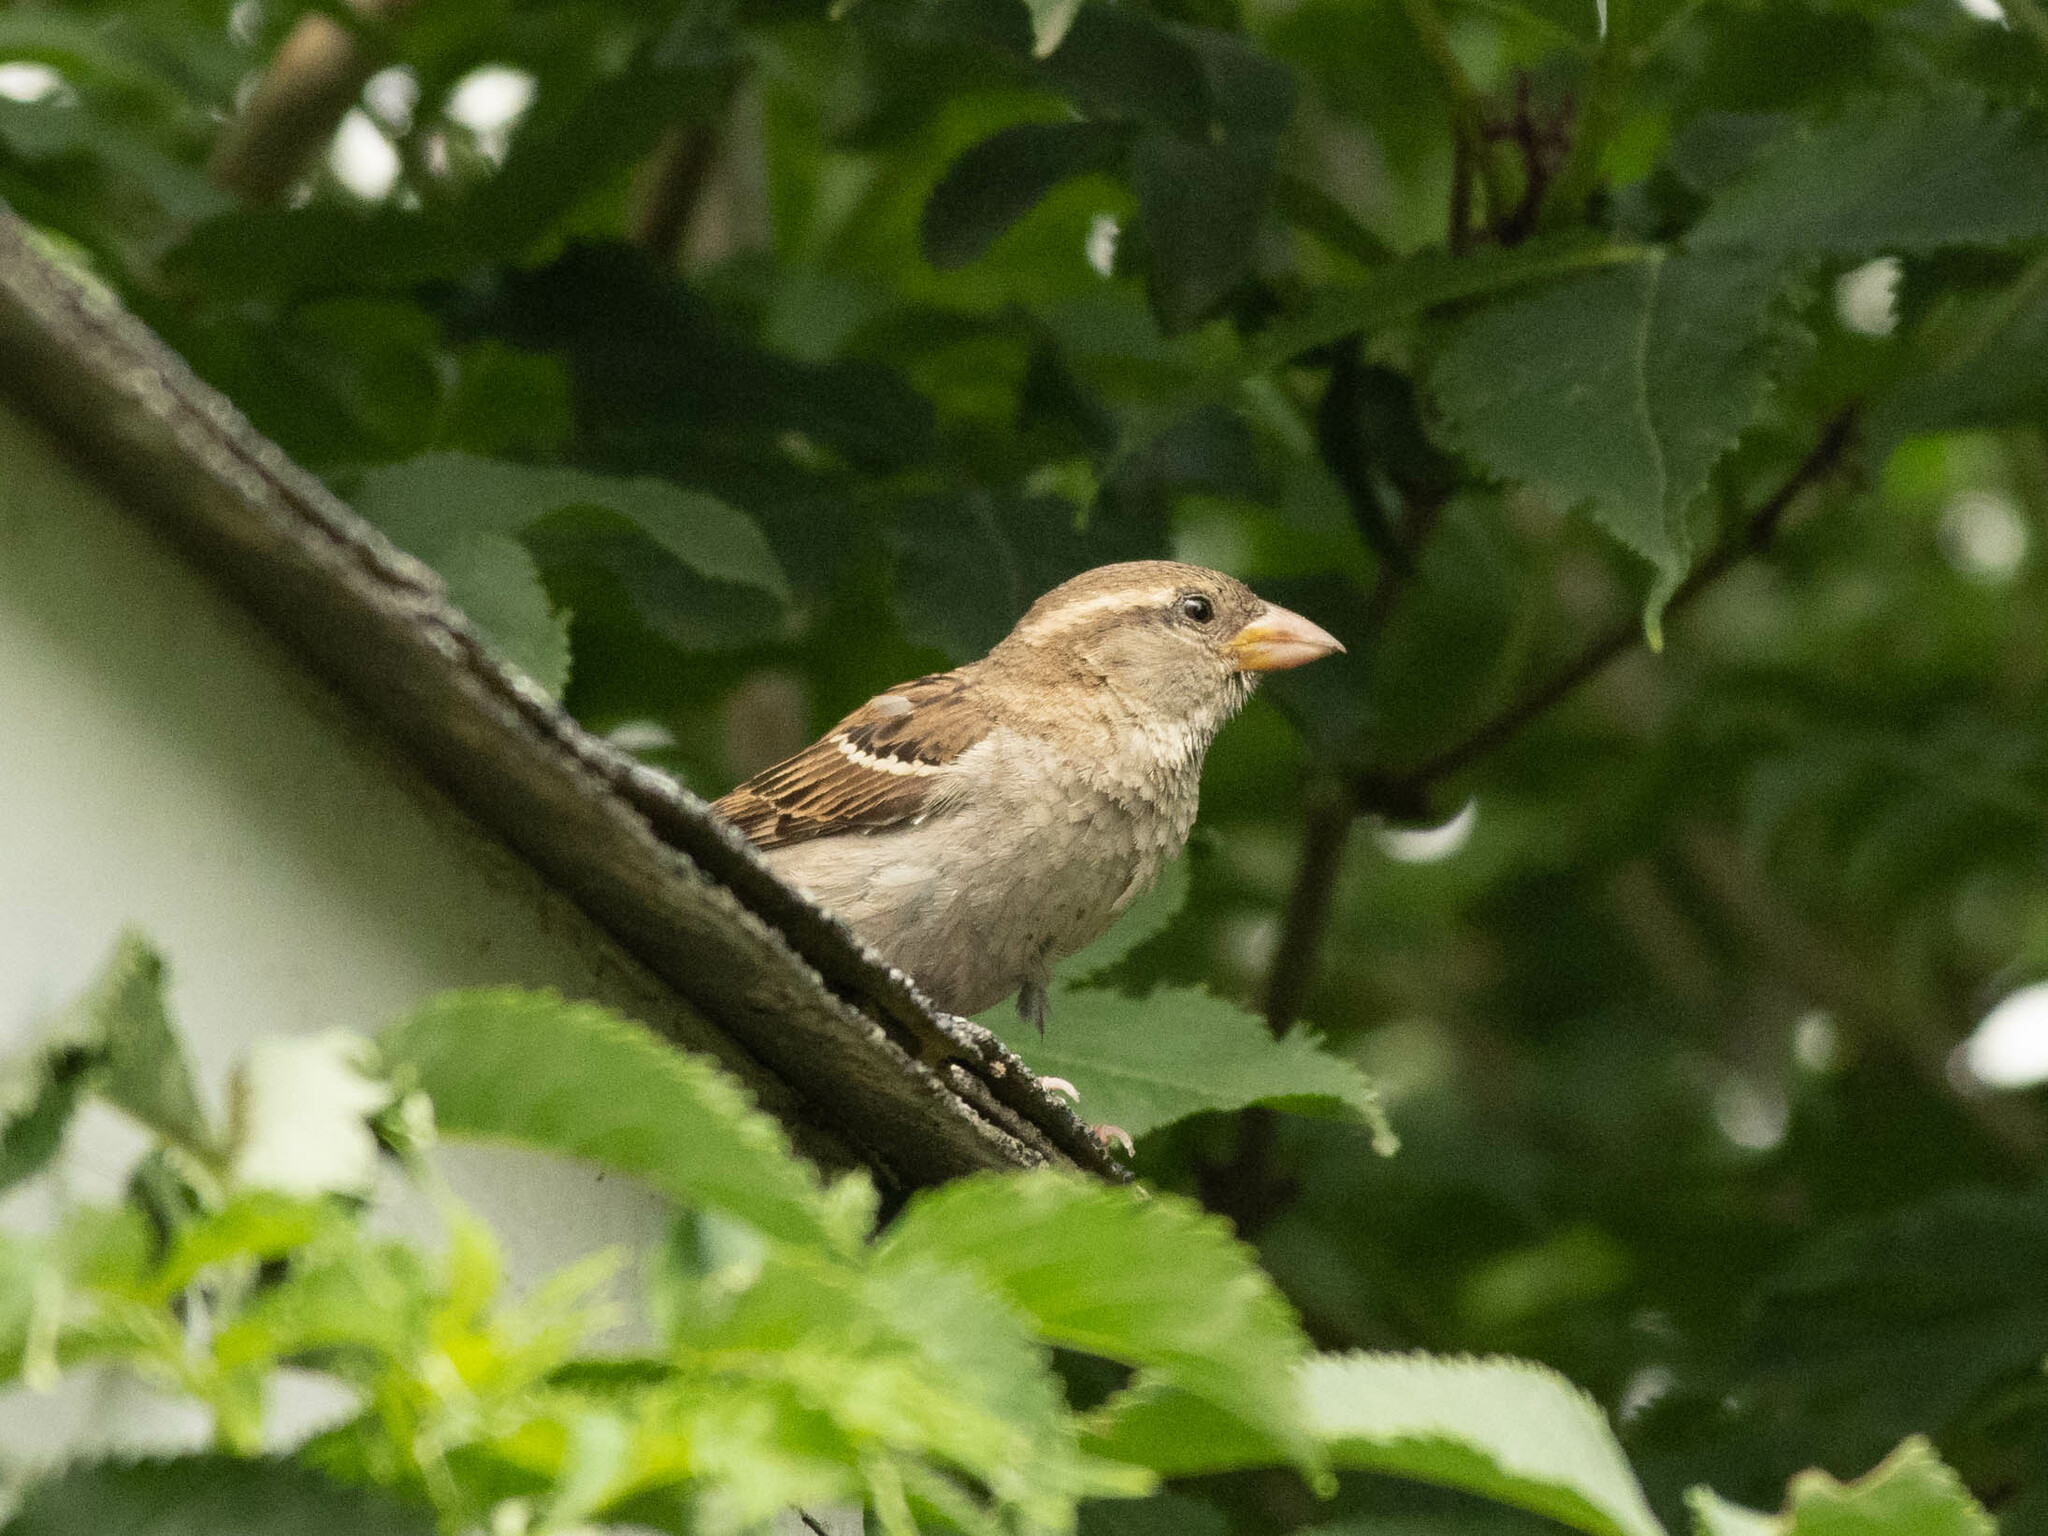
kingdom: Animalia
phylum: Chordata
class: Aves
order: Passeriformes
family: Passeridae
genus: Passer
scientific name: Passer domesticus
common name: House sparrow
